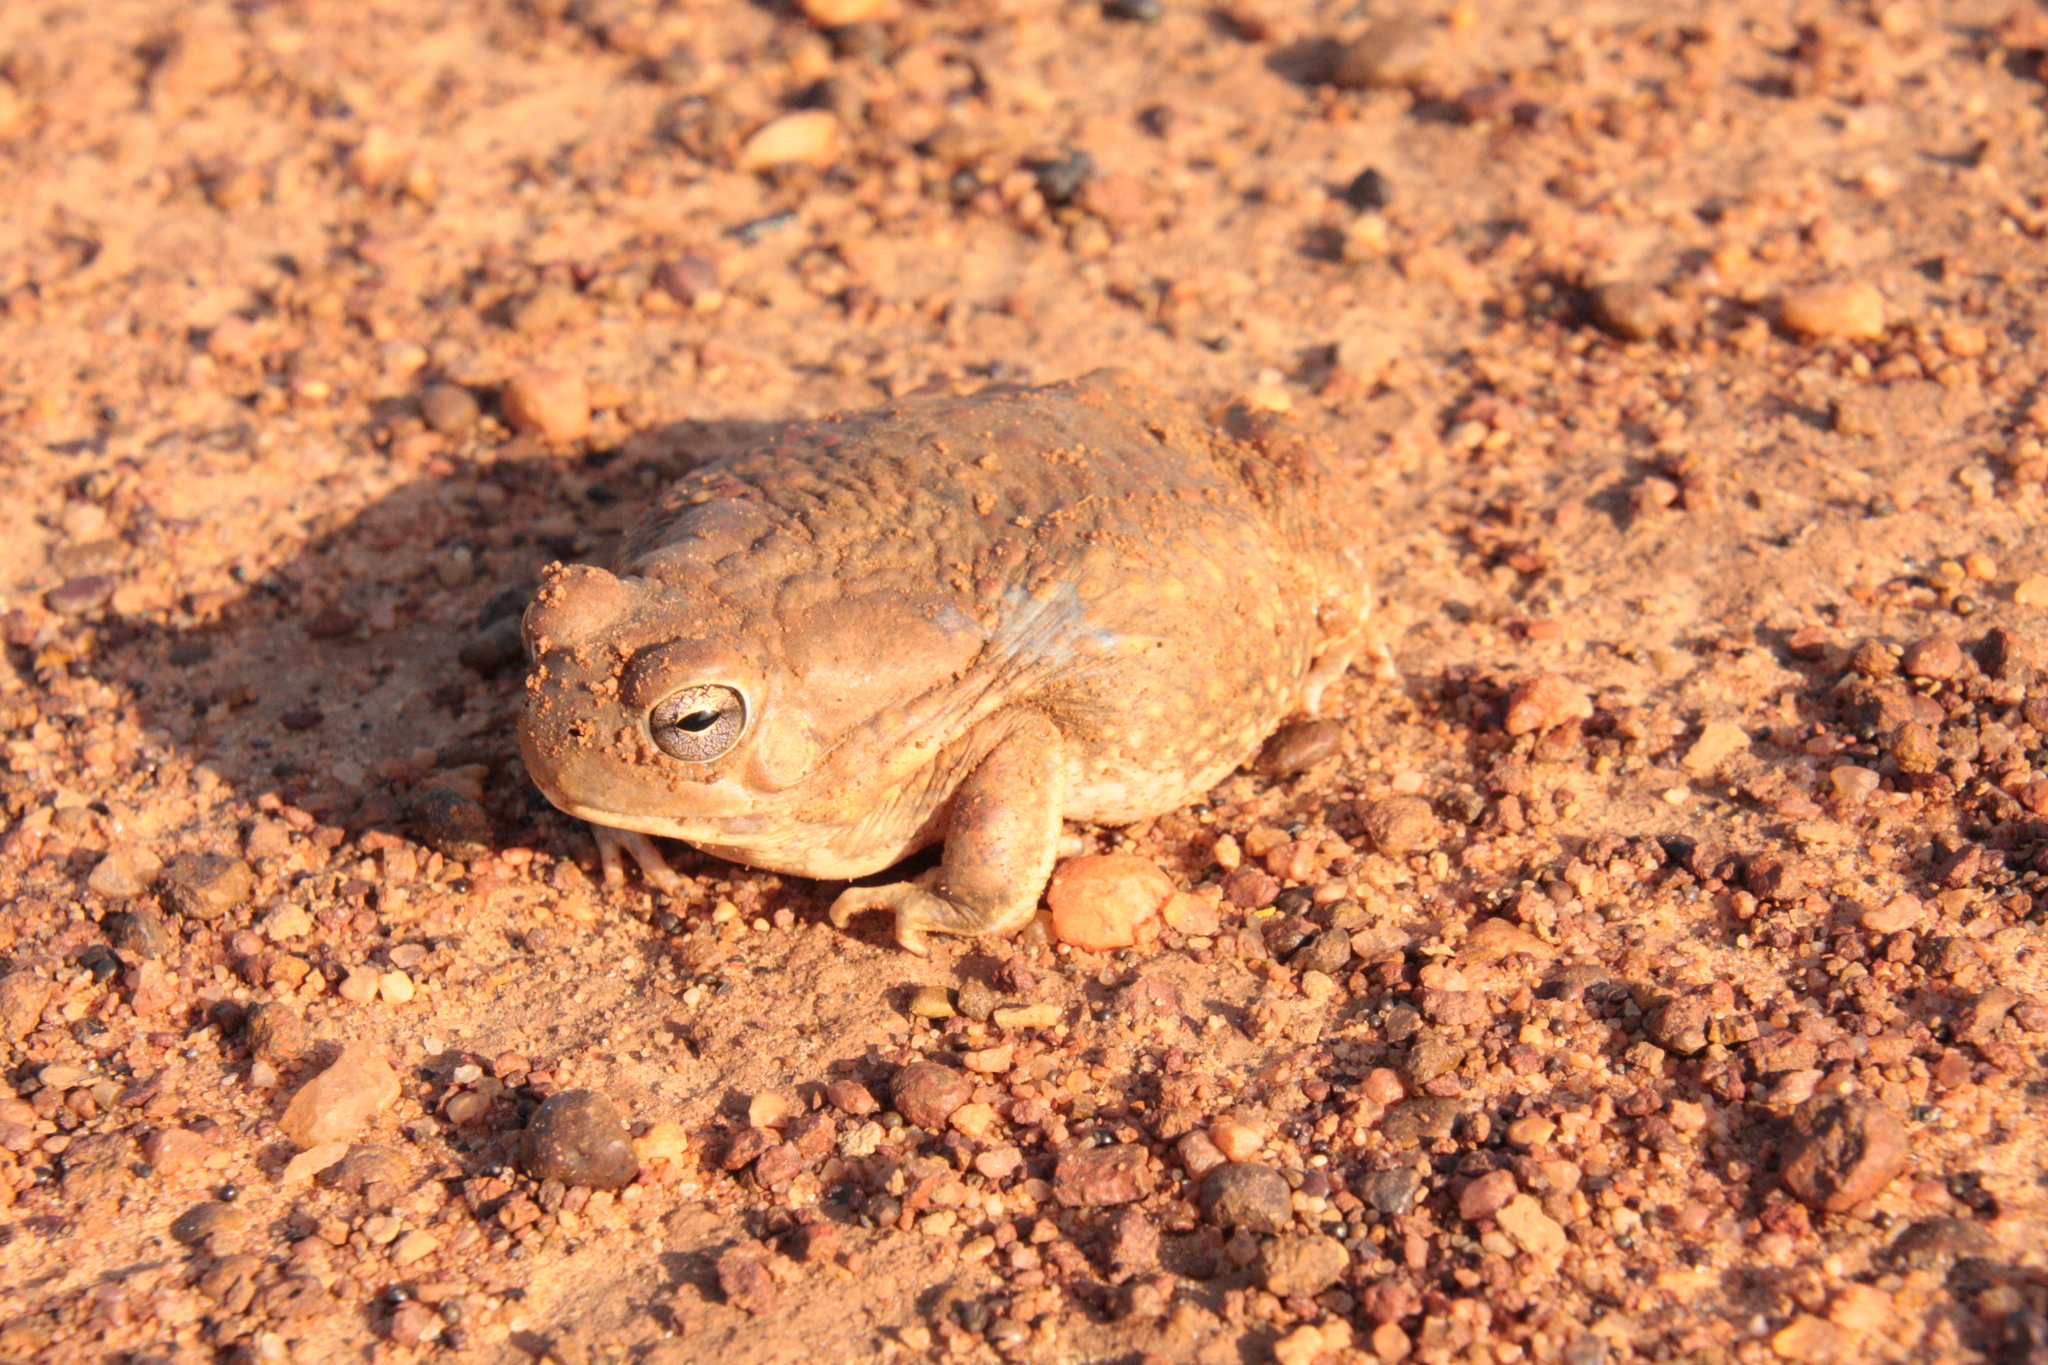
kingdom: Animalia
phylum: Chordata
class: Amphibia
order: Anura
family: Bufonidae
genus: Sclerophrys
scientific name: Sclerophrys pentoni
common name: Penton's toad
